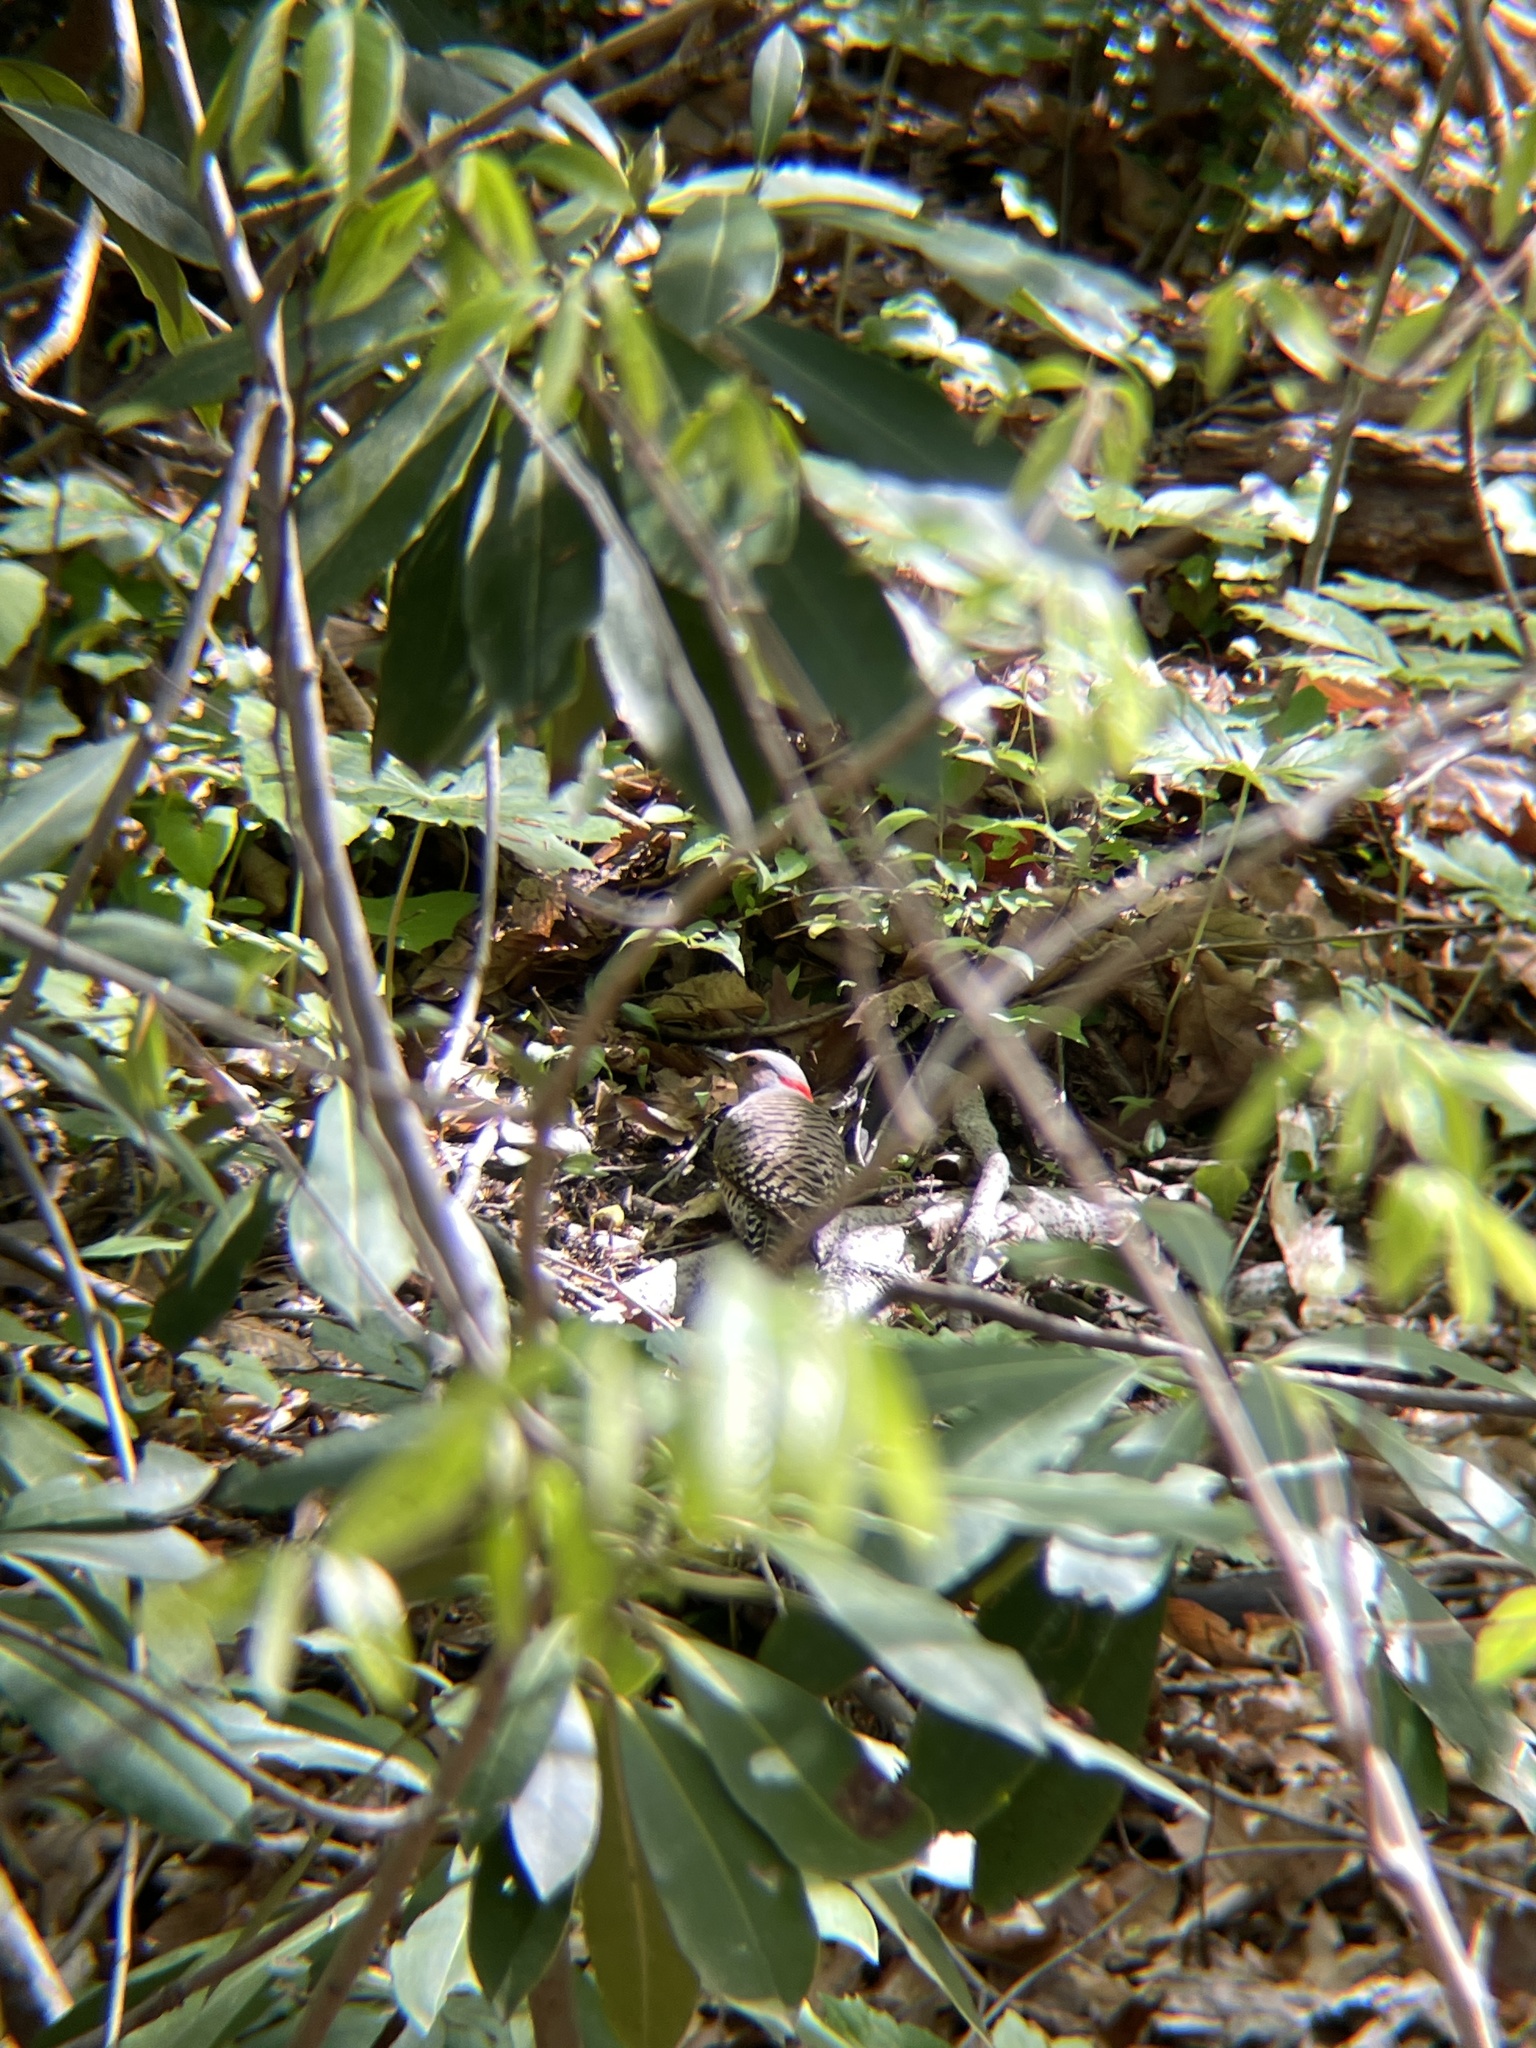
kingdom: Animalia
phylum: Chordata
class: Aves
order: Piciformes
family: Picidae
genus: Colaptes
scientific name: Colaptes auratus
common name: Northern flicker
